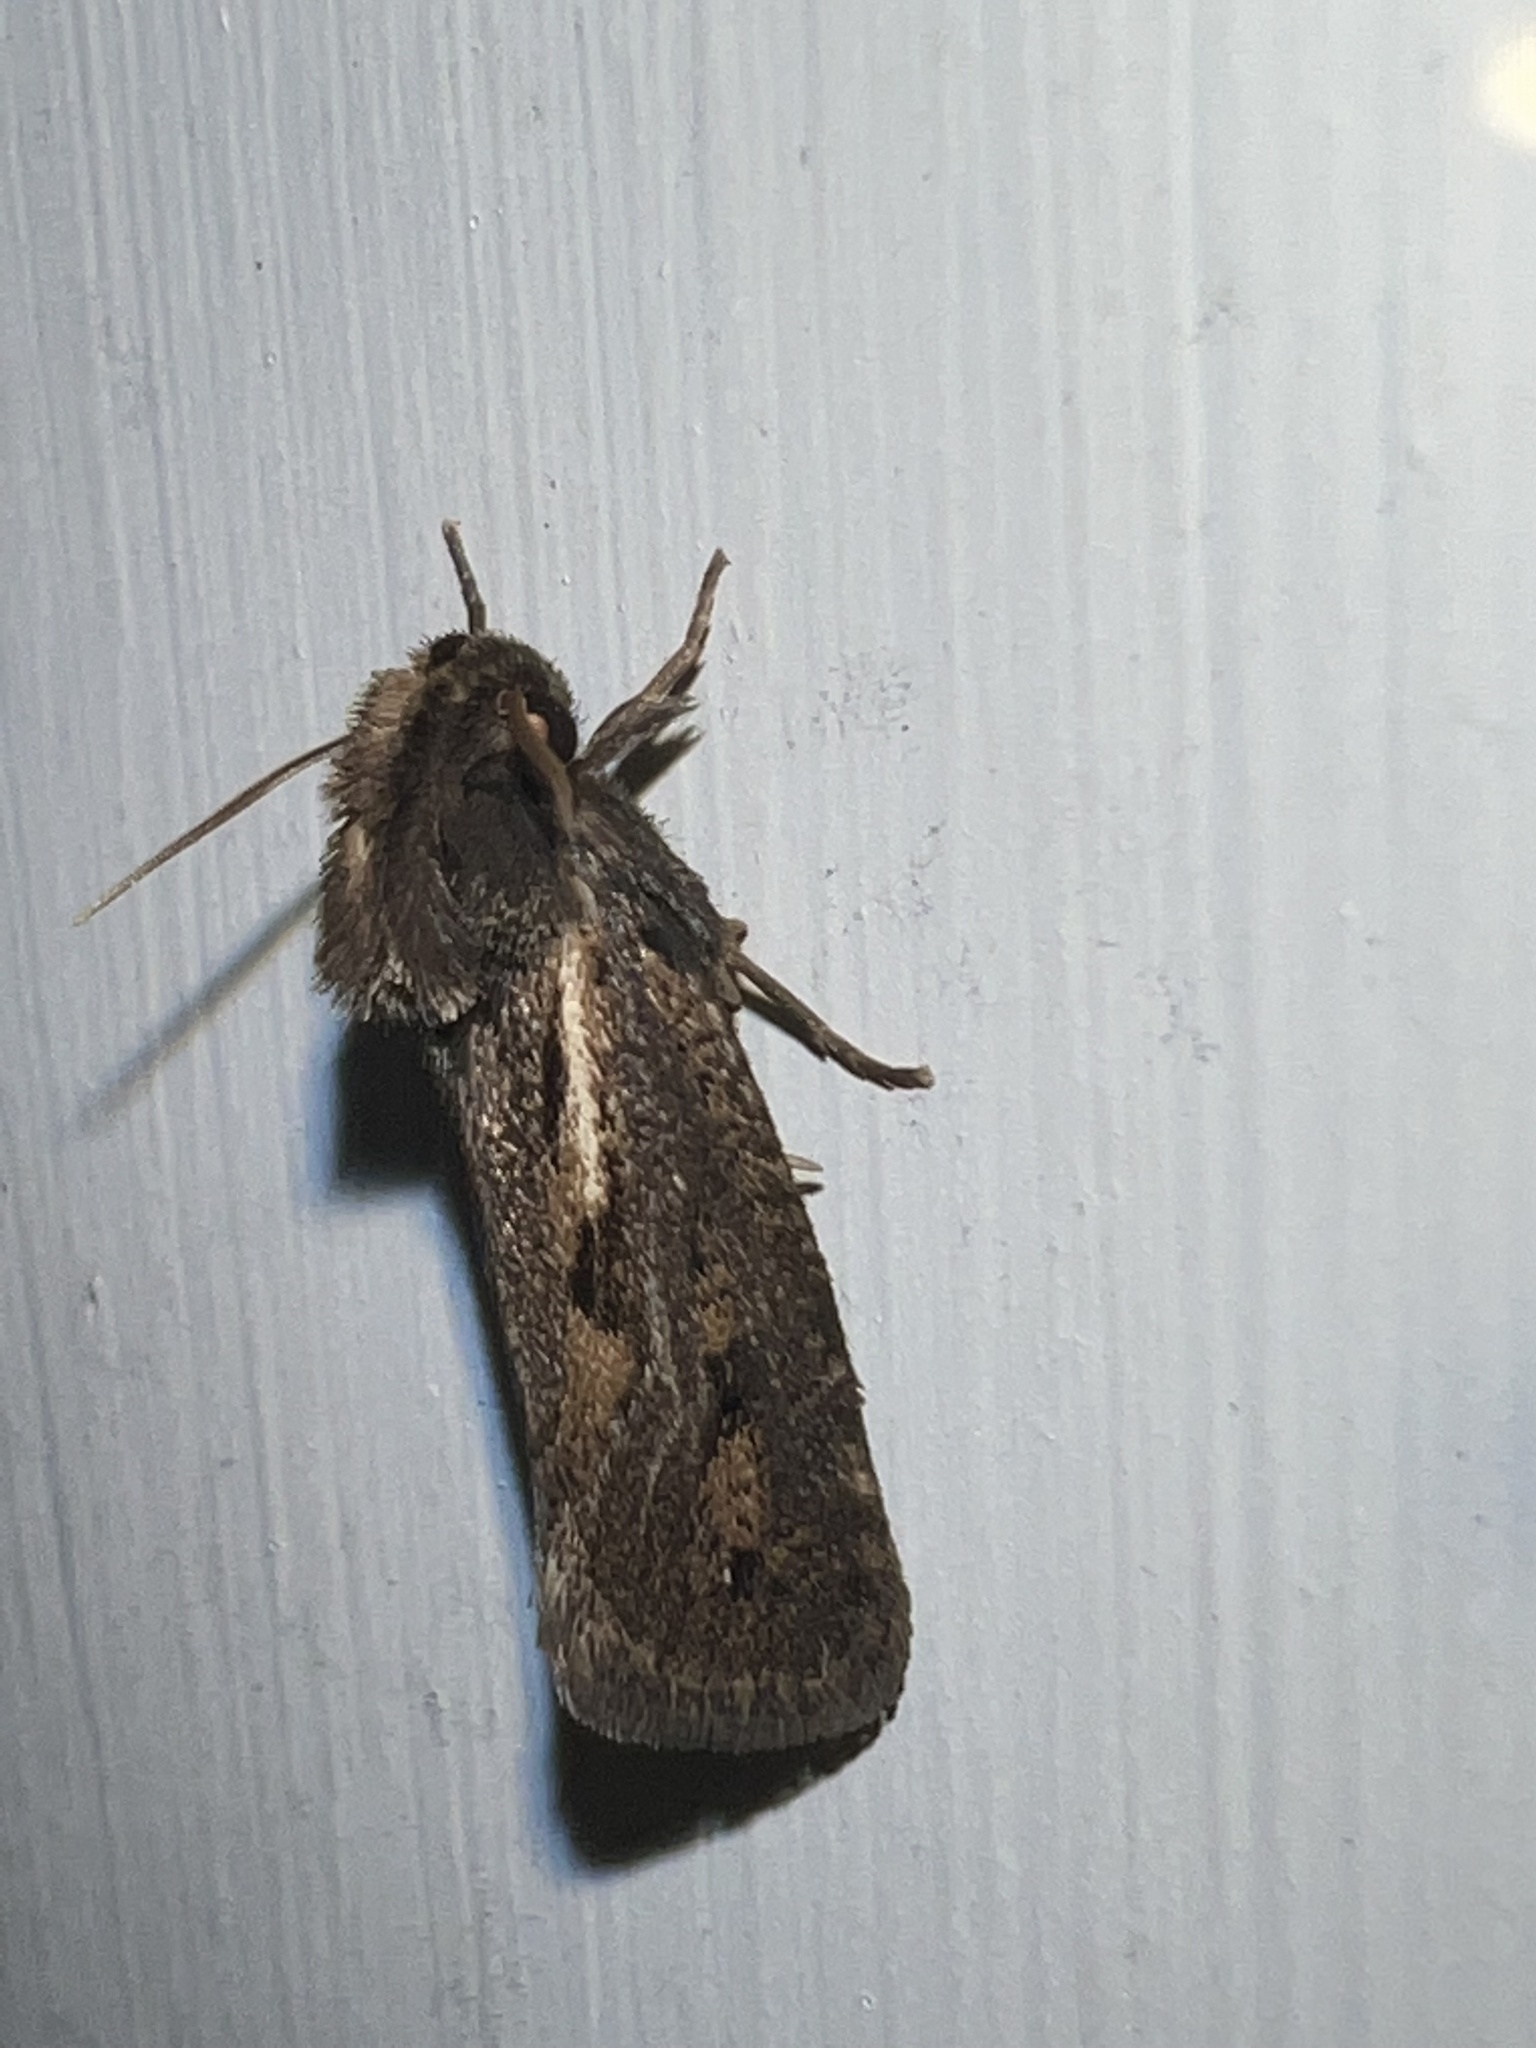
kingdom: Animalia
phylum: Arthropoda
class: Insecta
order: Lepidoptera
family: Tineidae
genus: Acrolophus
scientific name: Acrolophus popeanella
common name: Clemens' grass tubeworm moth
